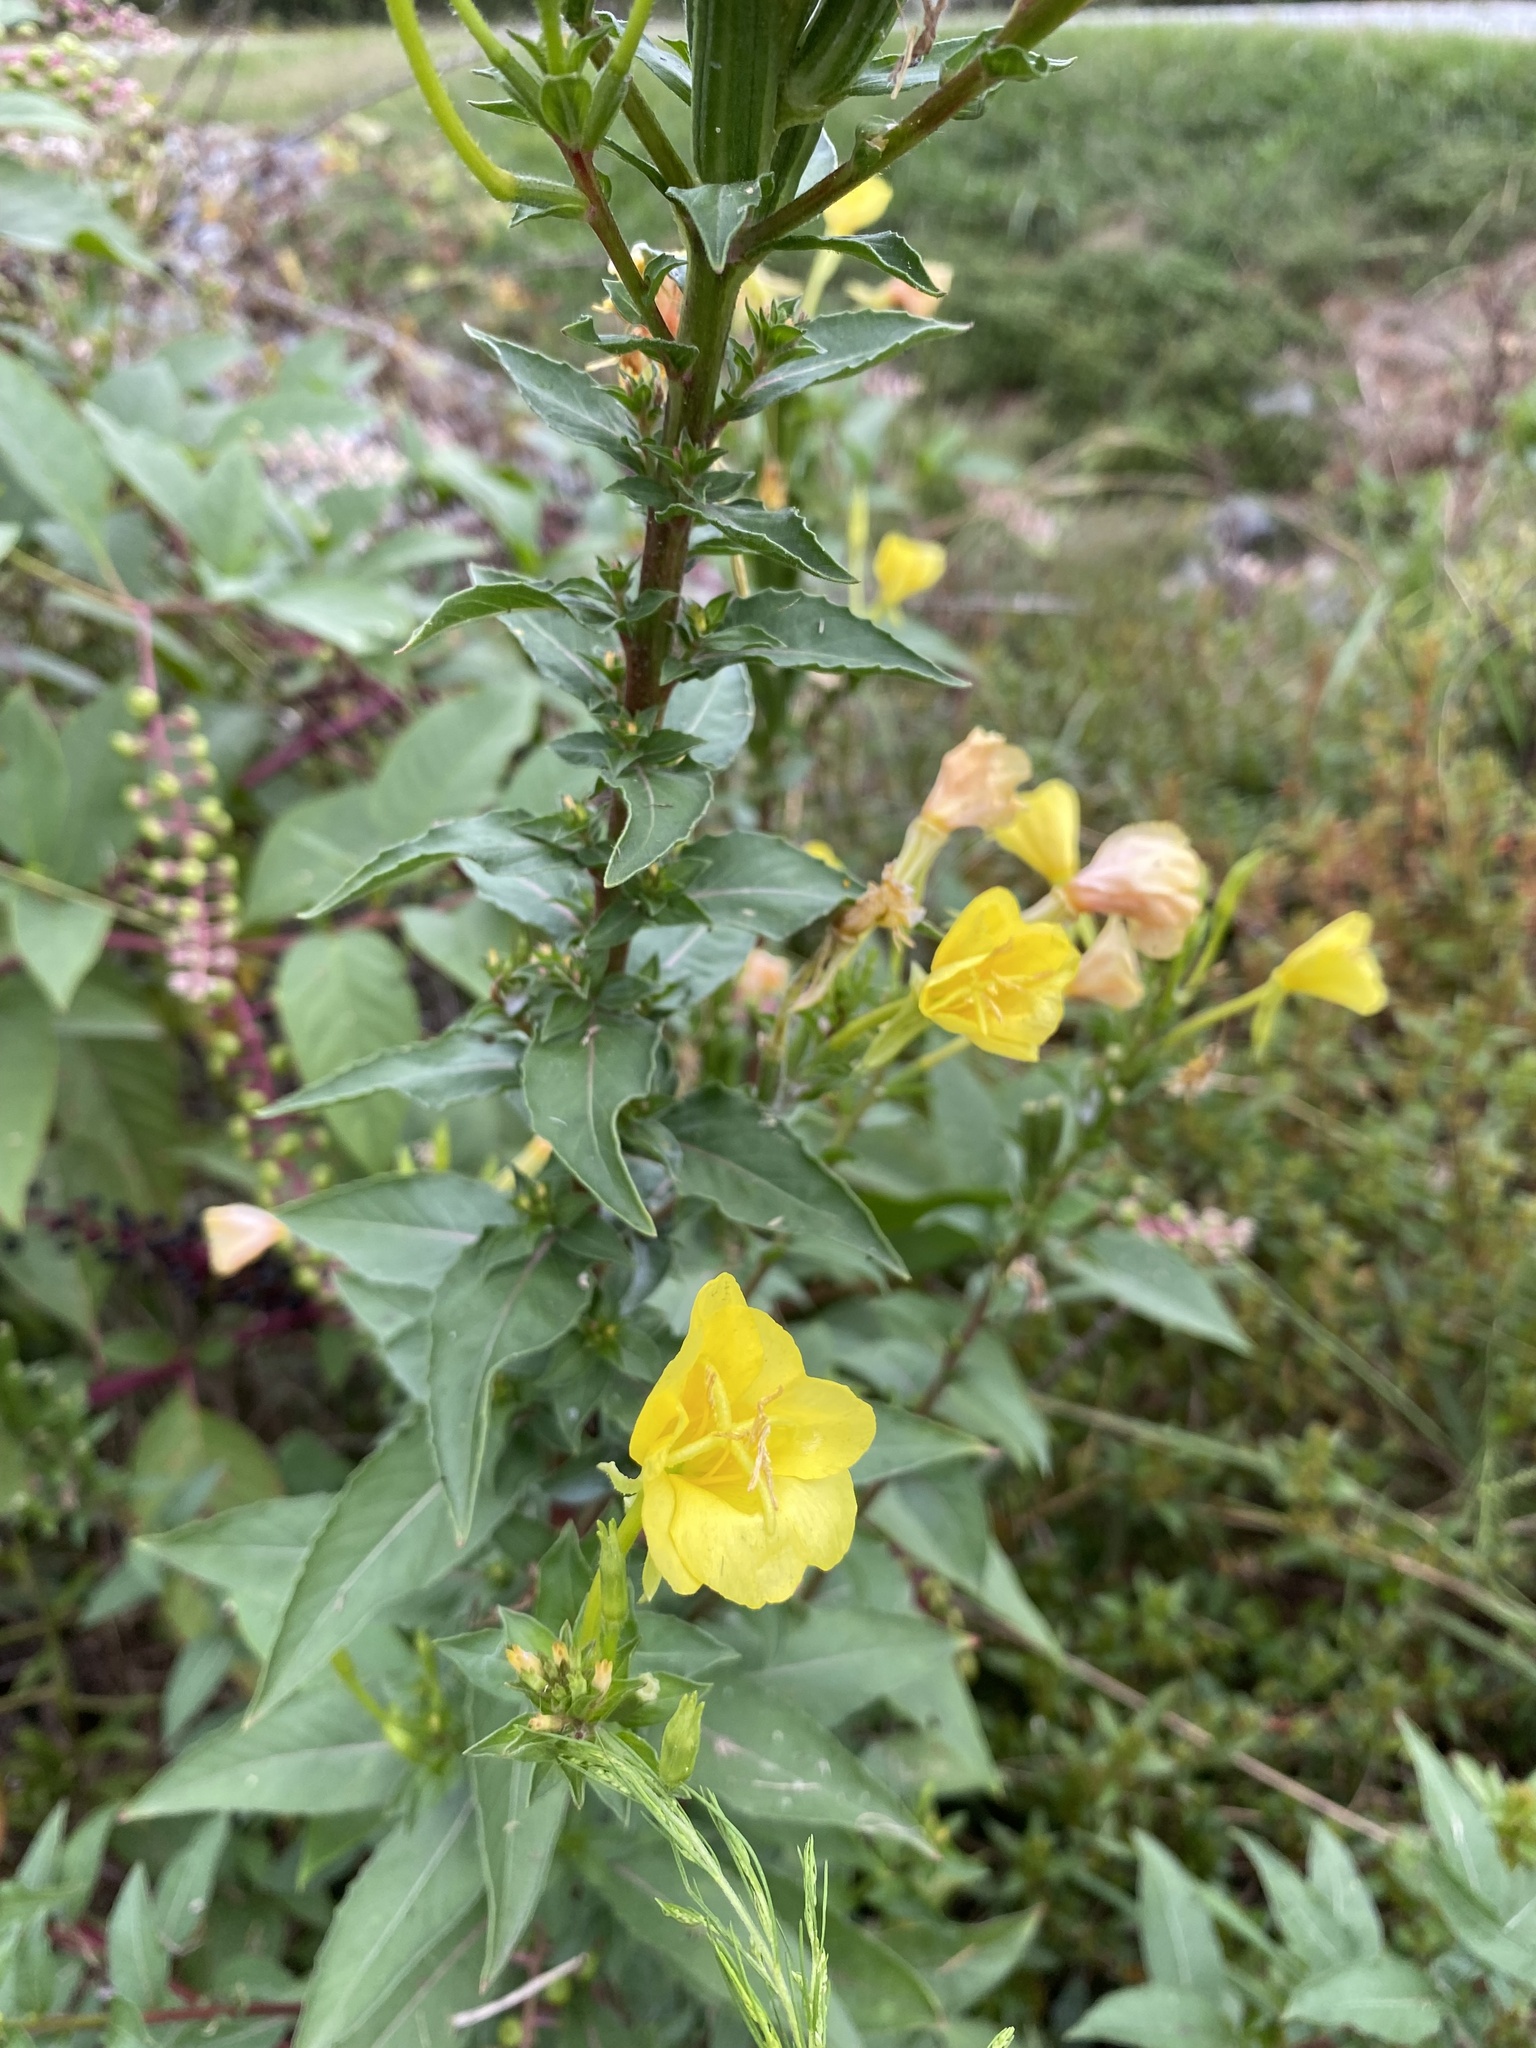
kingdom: Plantae
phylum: Tracheophyta
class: Magnoliopsida
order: Myrtales
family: Onagraceae
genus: Oenothera
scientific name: Oenothera biennis
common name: Common evening-primrose
